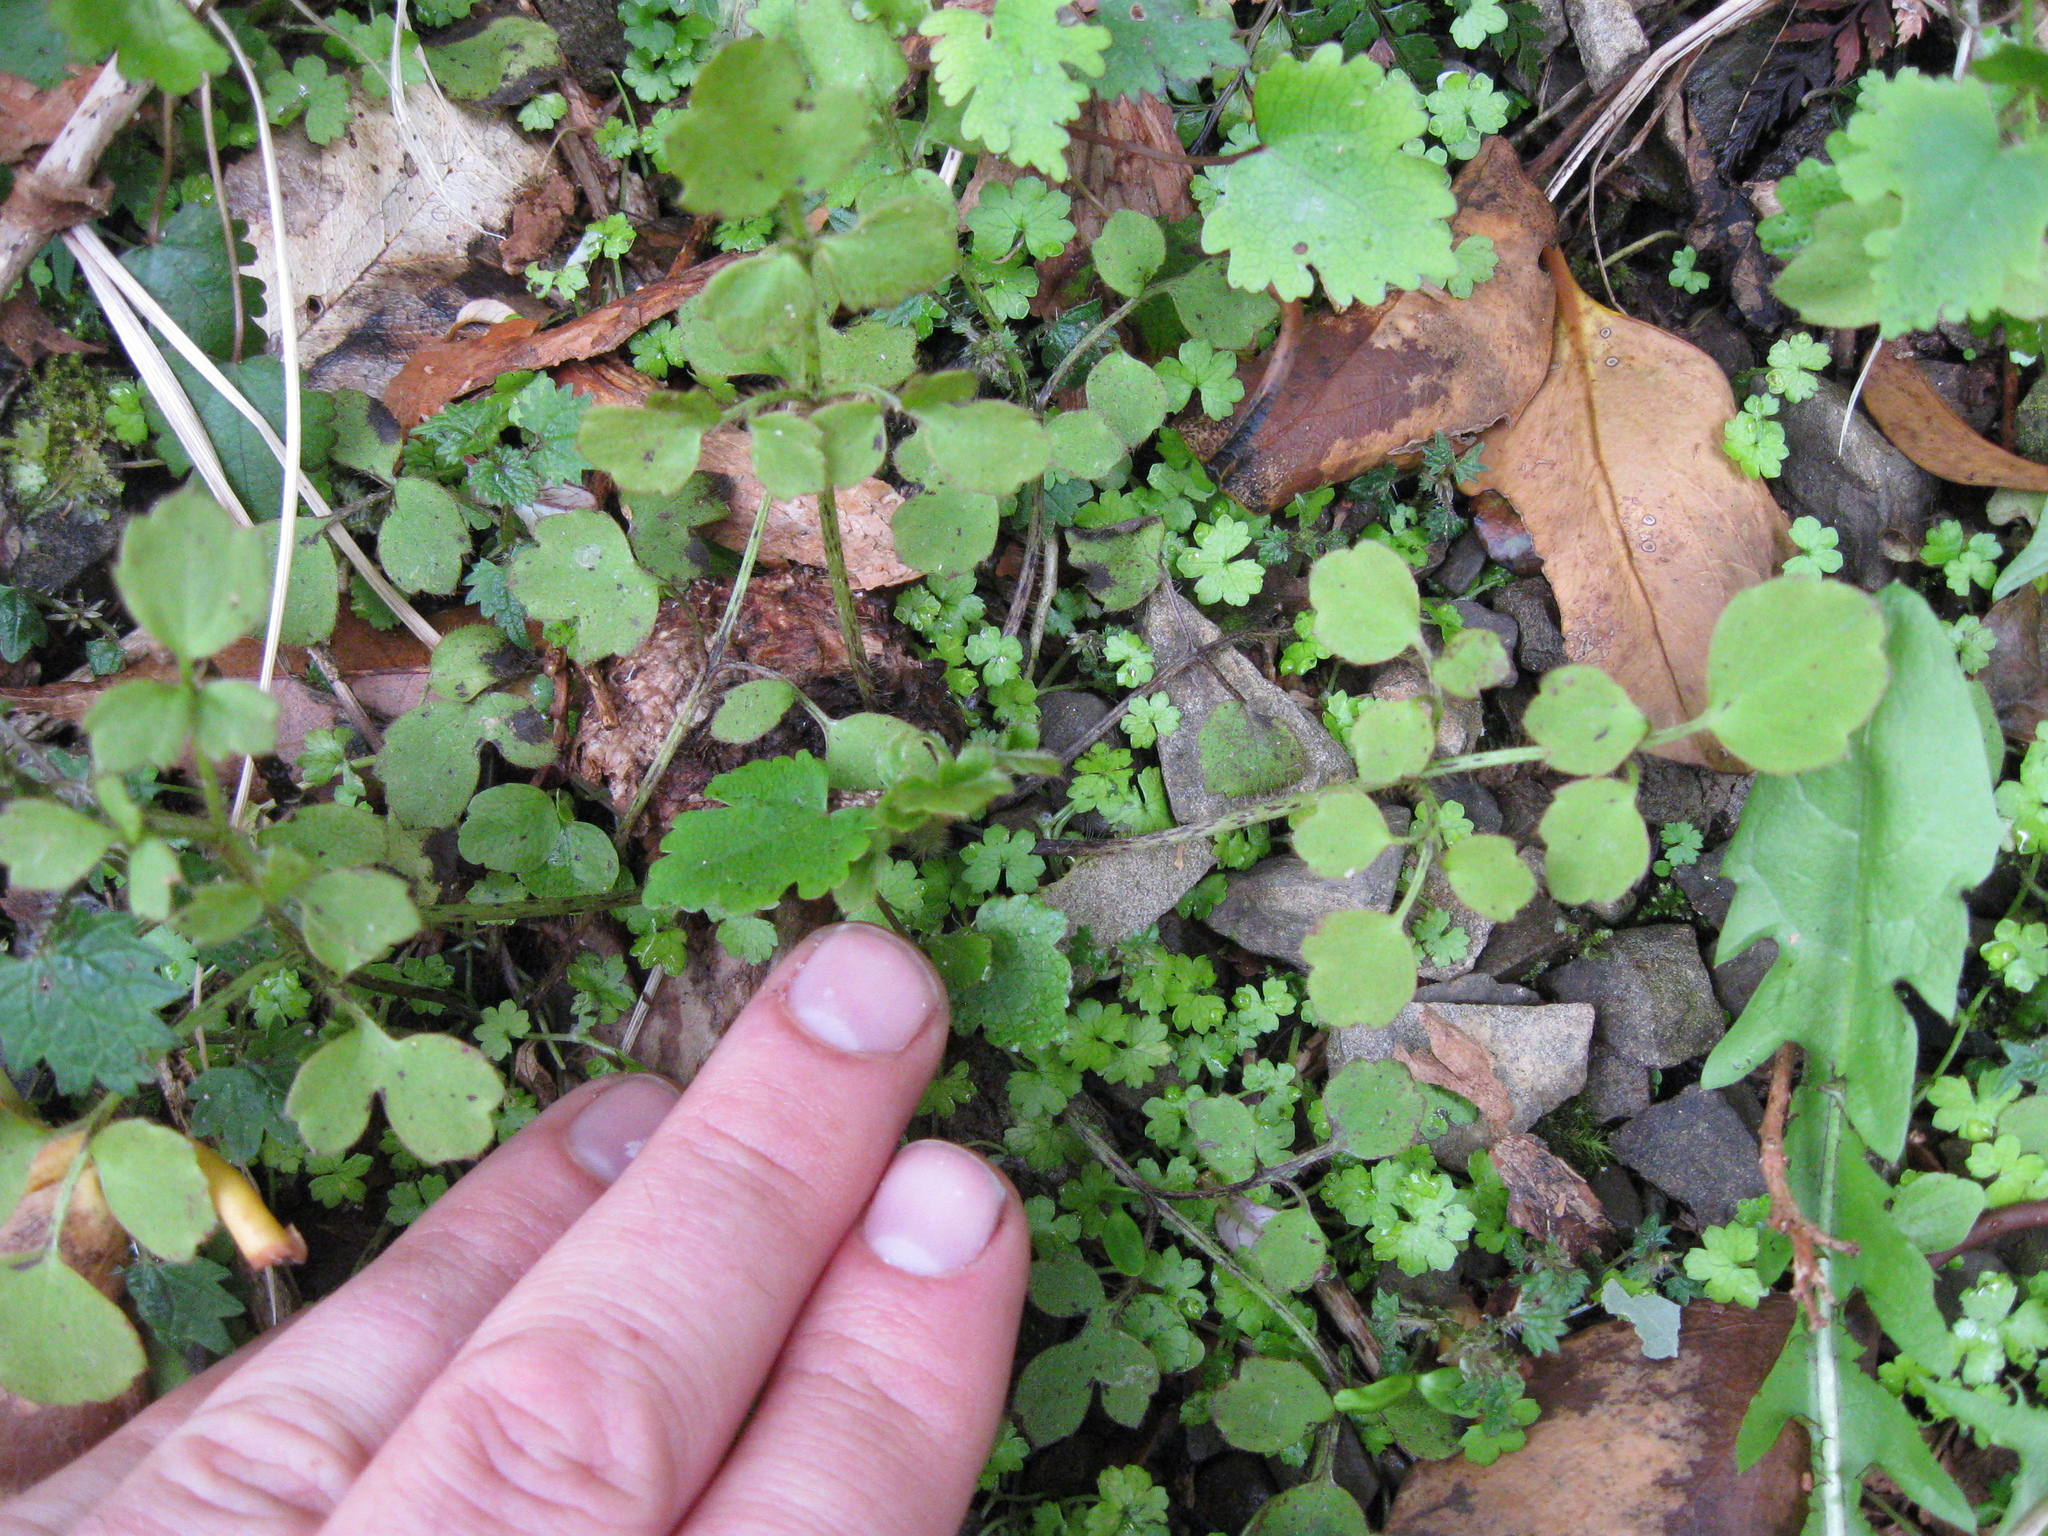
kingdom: Plantae
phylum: Tracheophyta
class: Magnoliopsida
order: Ranunculales
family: Ranunculaceae
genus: Ranunculus
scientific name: Ranunculus reflexus
